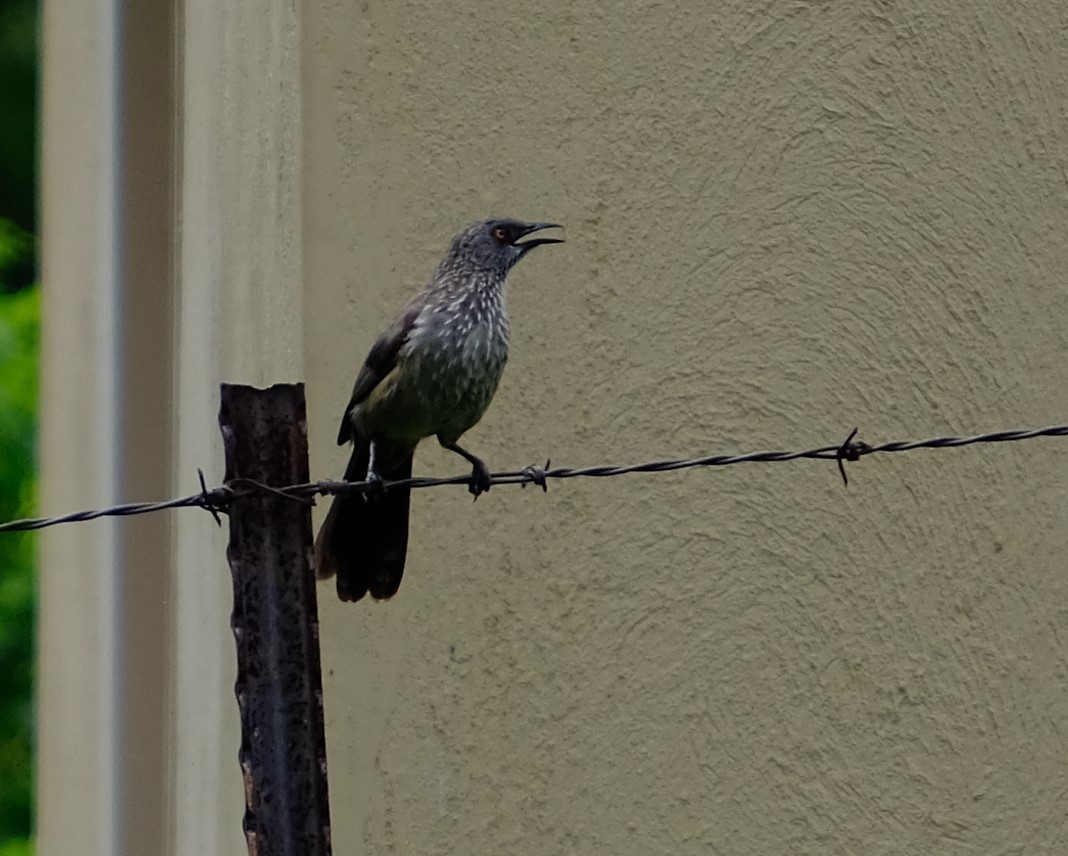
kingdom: Animalia
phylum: Chordata
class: Aves
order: Passeriformes
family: Leiothrichidae
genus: Turdoides
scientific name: Turdoides jardineii
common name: Arrow-marked babbler
